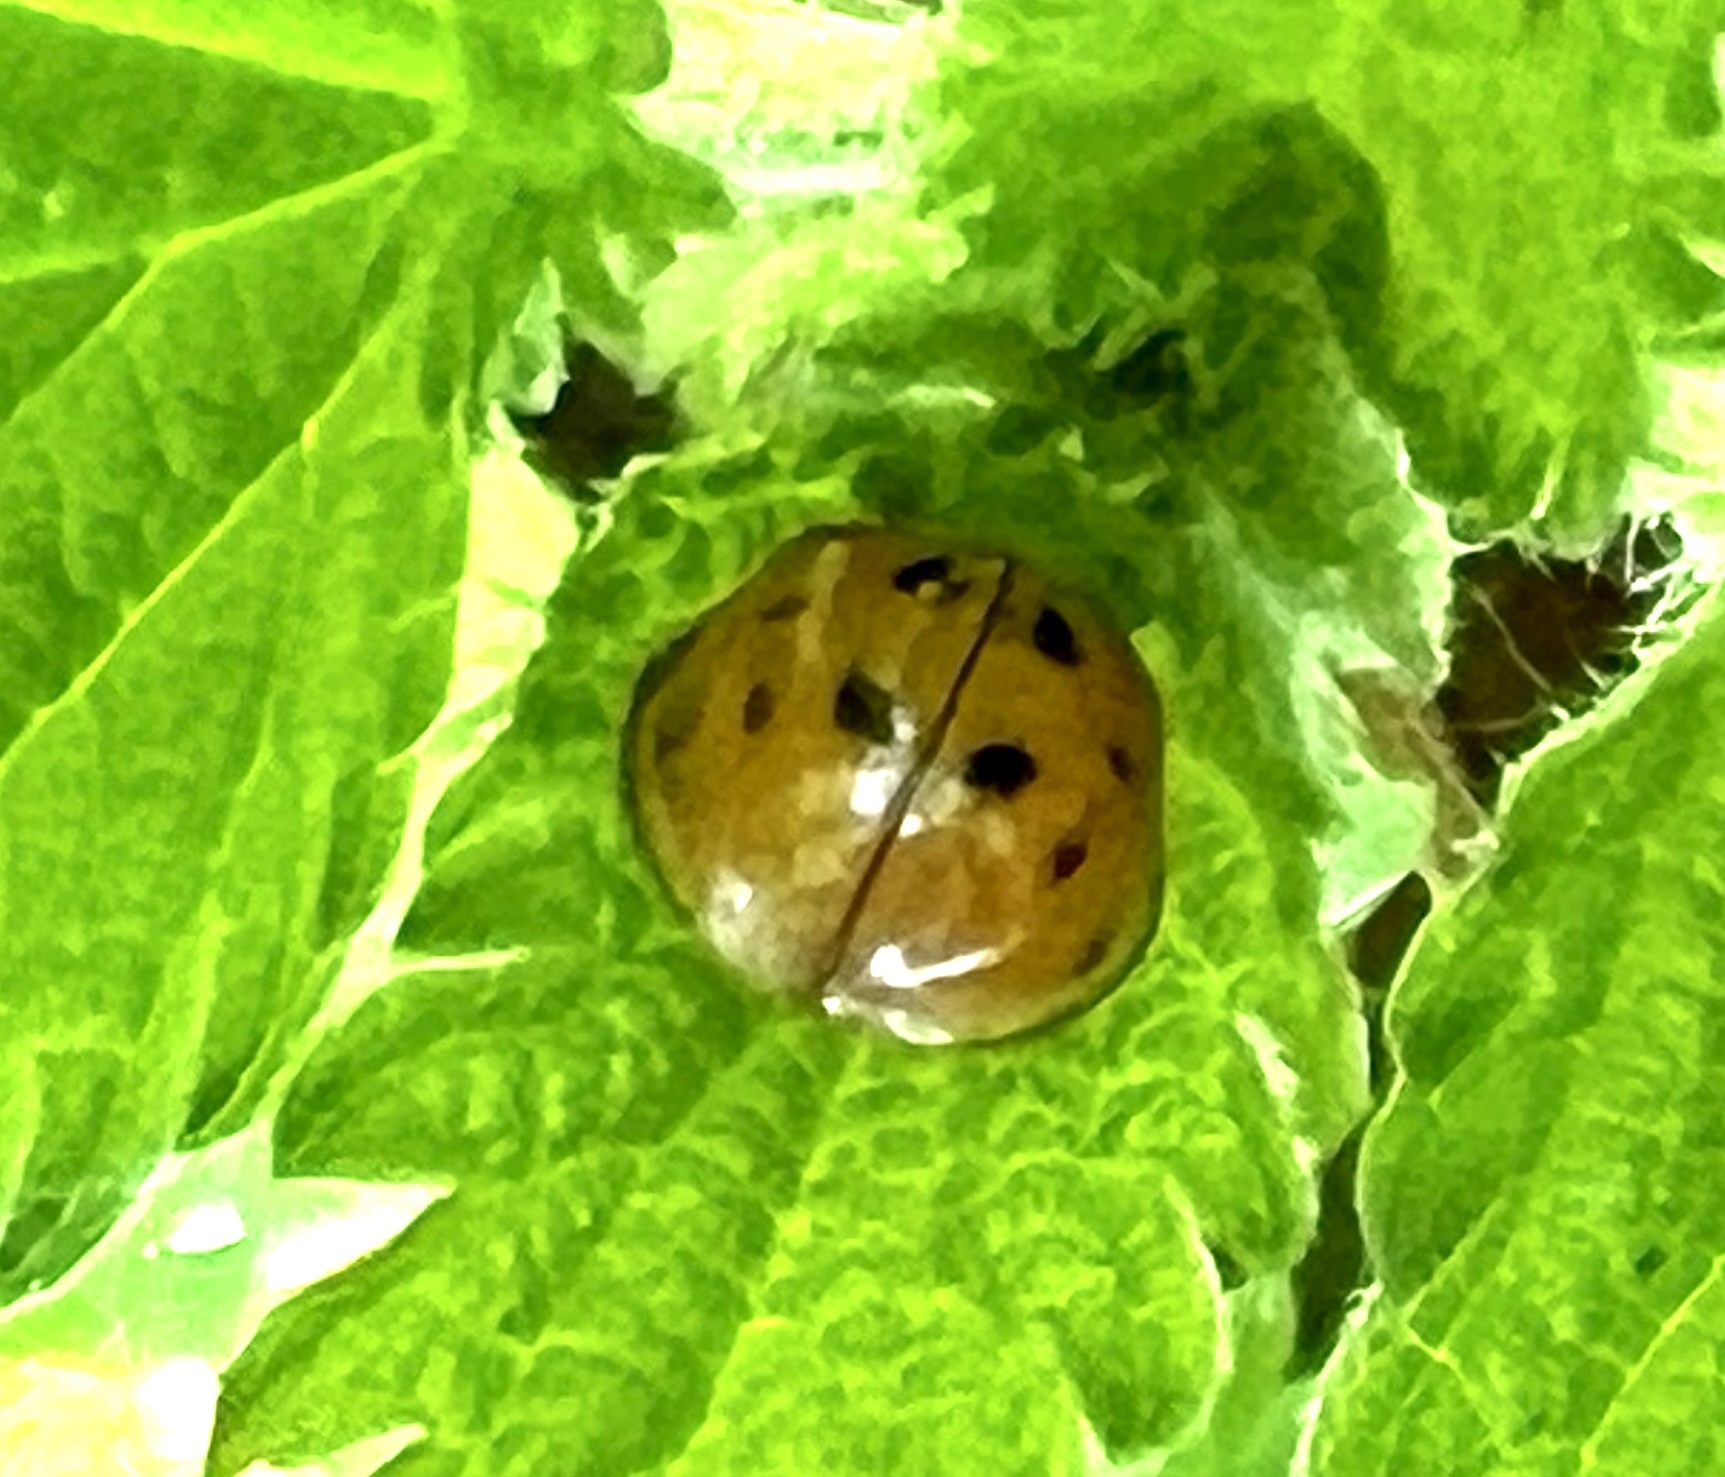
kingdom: Animalia
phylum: Arthropoda
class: Insecta
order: Coleoptera
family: Coccinellidae
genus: Harmonia
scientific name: Harmonia axyridis
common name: Harlequin ladybird
